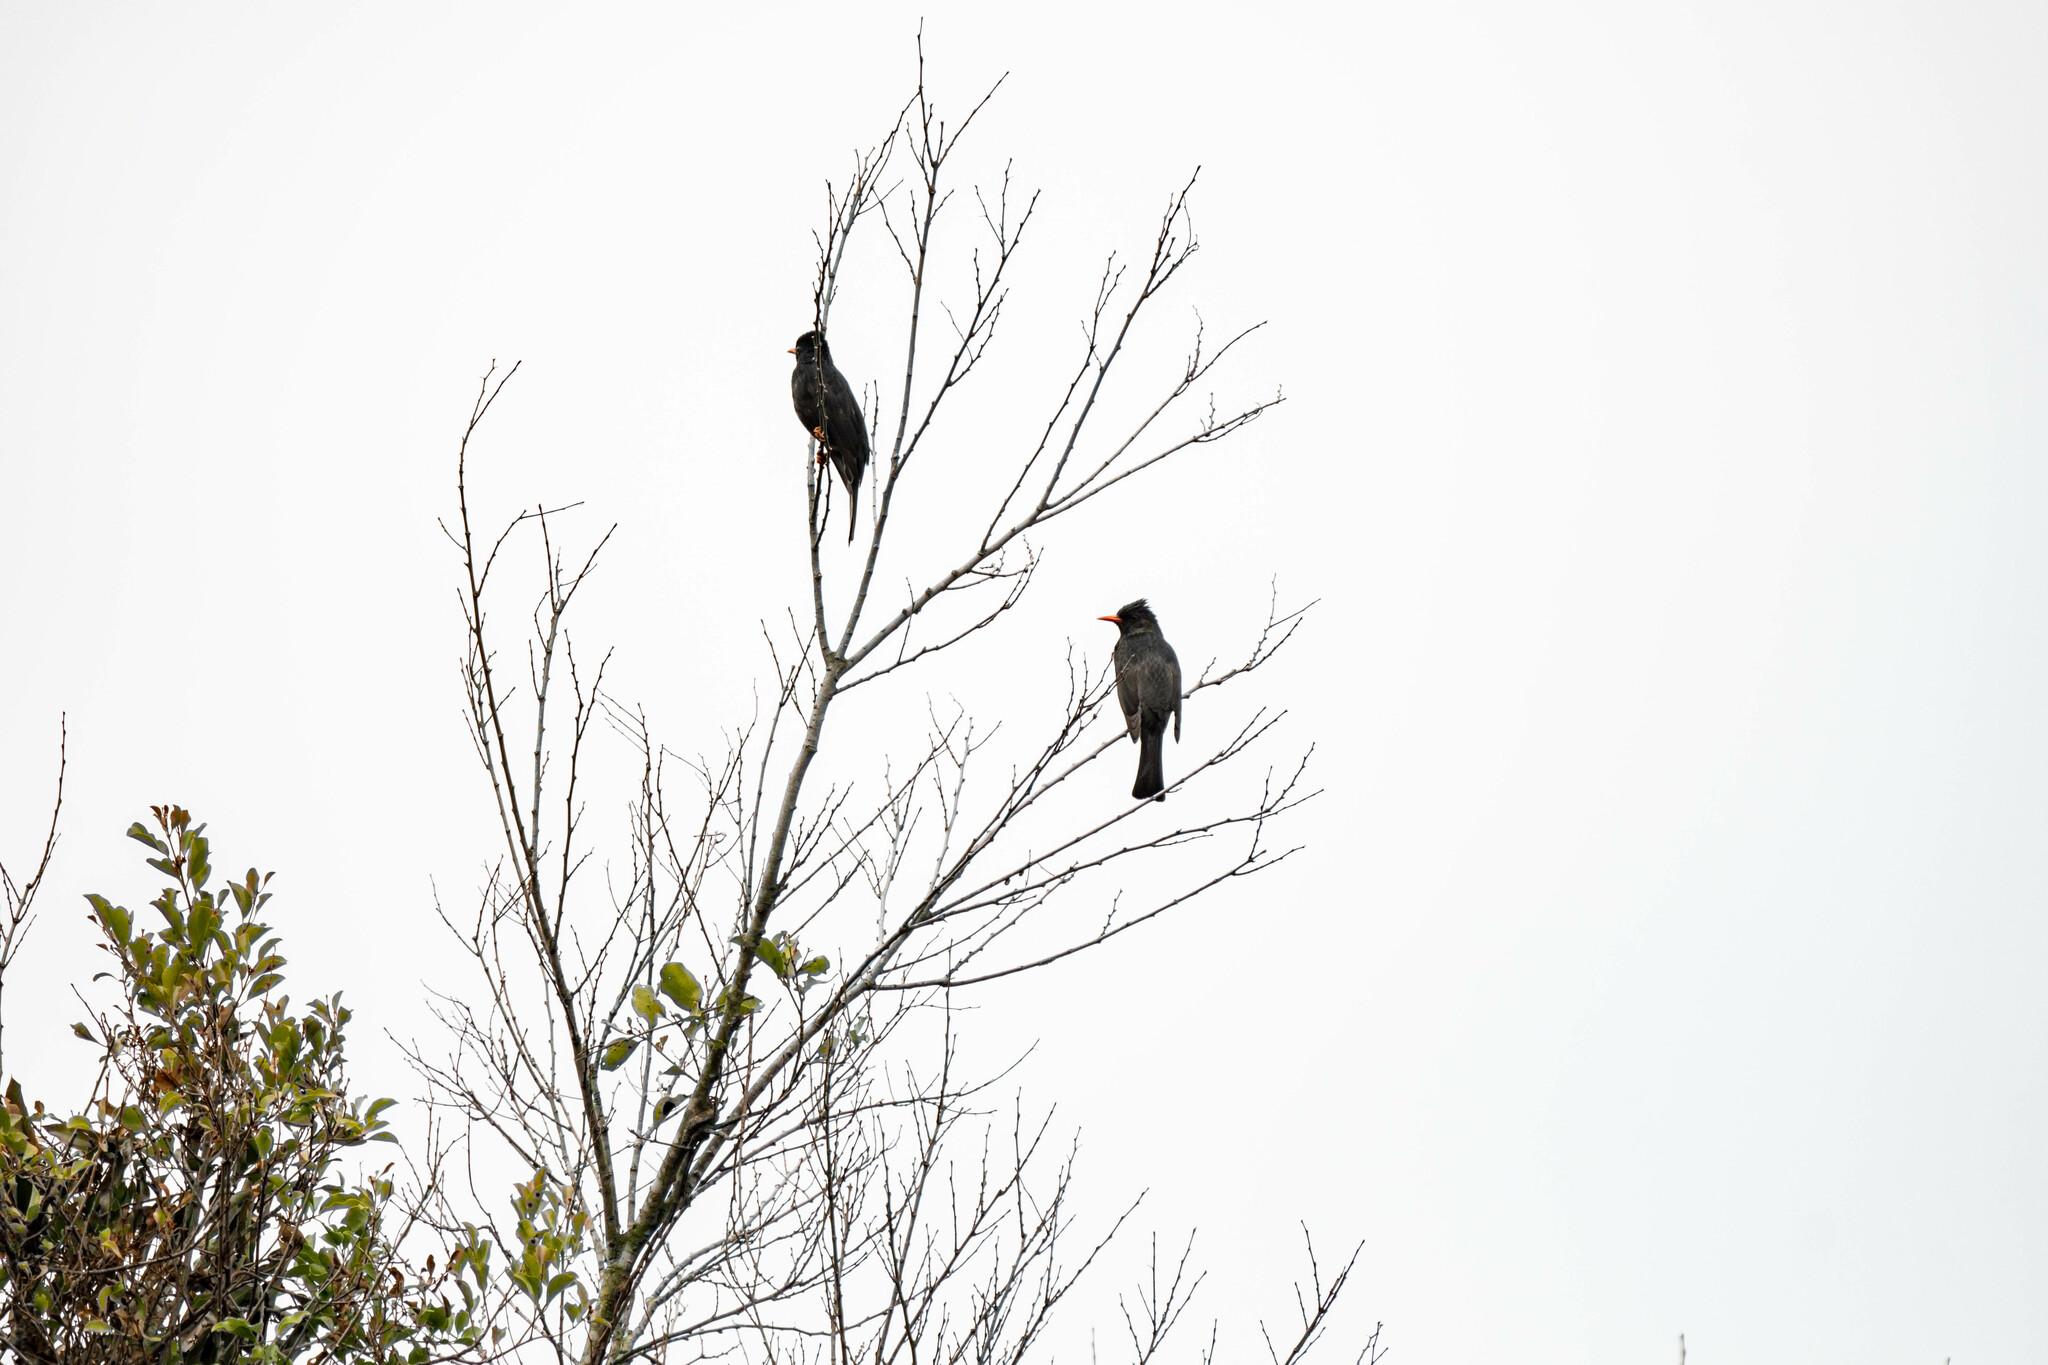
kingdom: Animalia
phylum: Chordata
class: Aves
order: Passeriformes
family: Pycnonotidae
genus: Hypsipetes
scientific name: Hypsipetes leucocephalus
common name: Black bulbul
